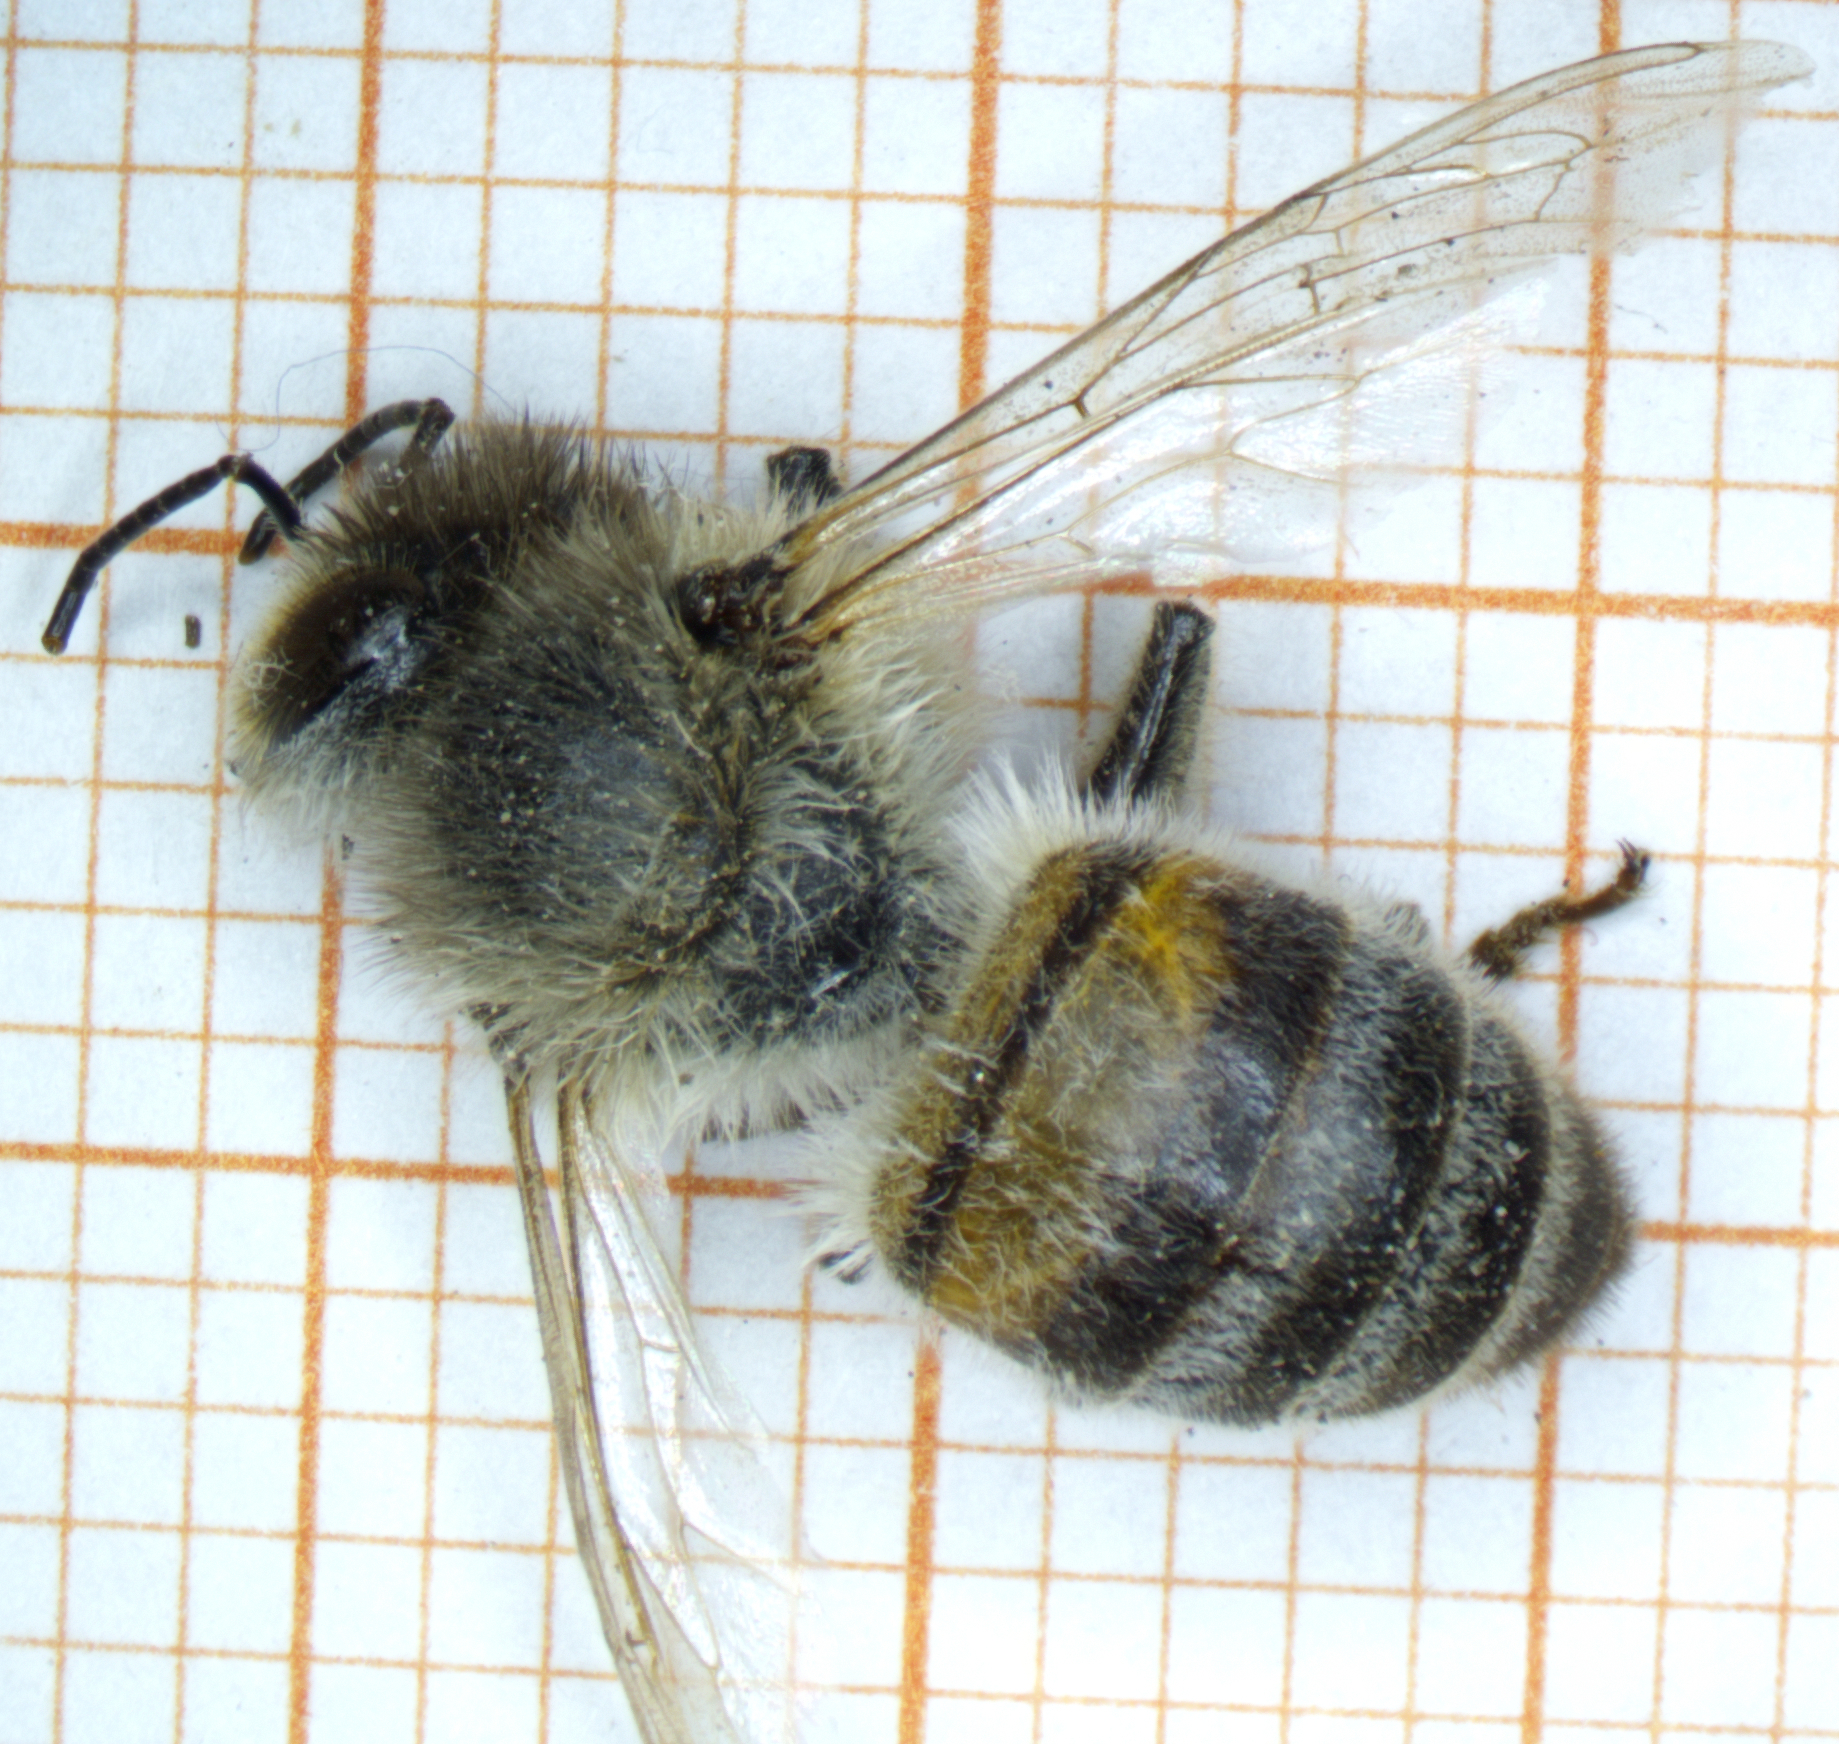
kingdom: Animalia
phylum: Arthropoda
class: Insecta
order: Hymenoptera
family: Apidae
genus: Apis
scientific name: Apis mellifera
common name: Honey bee
